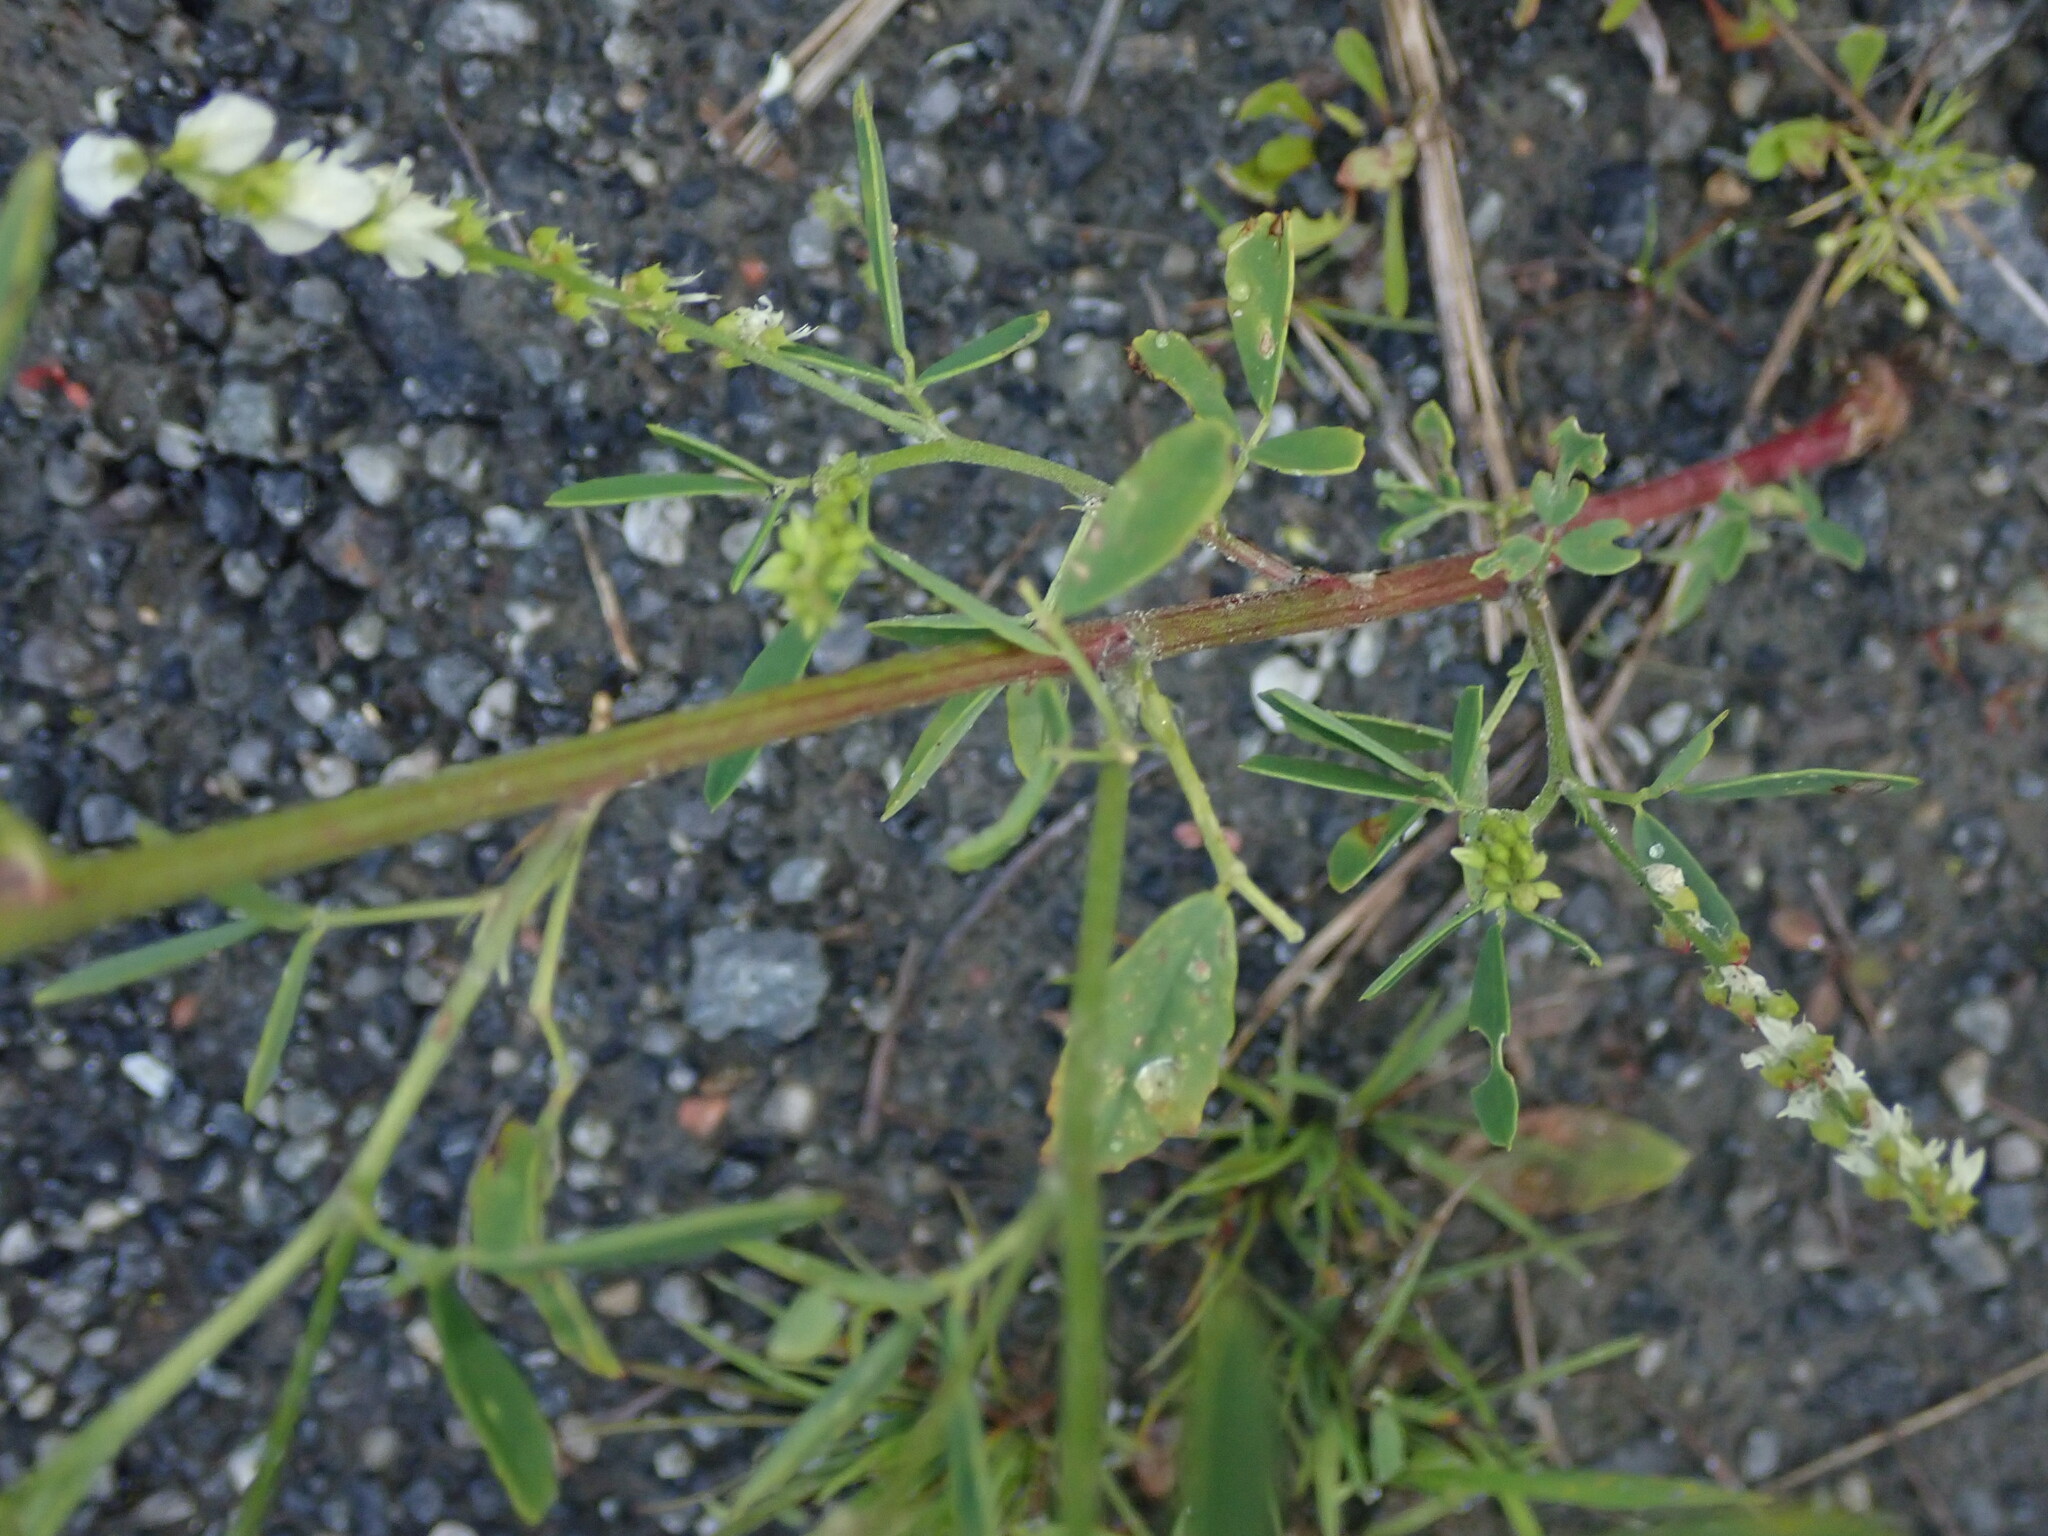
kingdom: Plantae
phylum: Tracheophyta
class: Magnoliopsida
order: Fabales
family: Fabaceae
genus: Melilotus
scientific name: Melilotus albus
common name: White melilot
